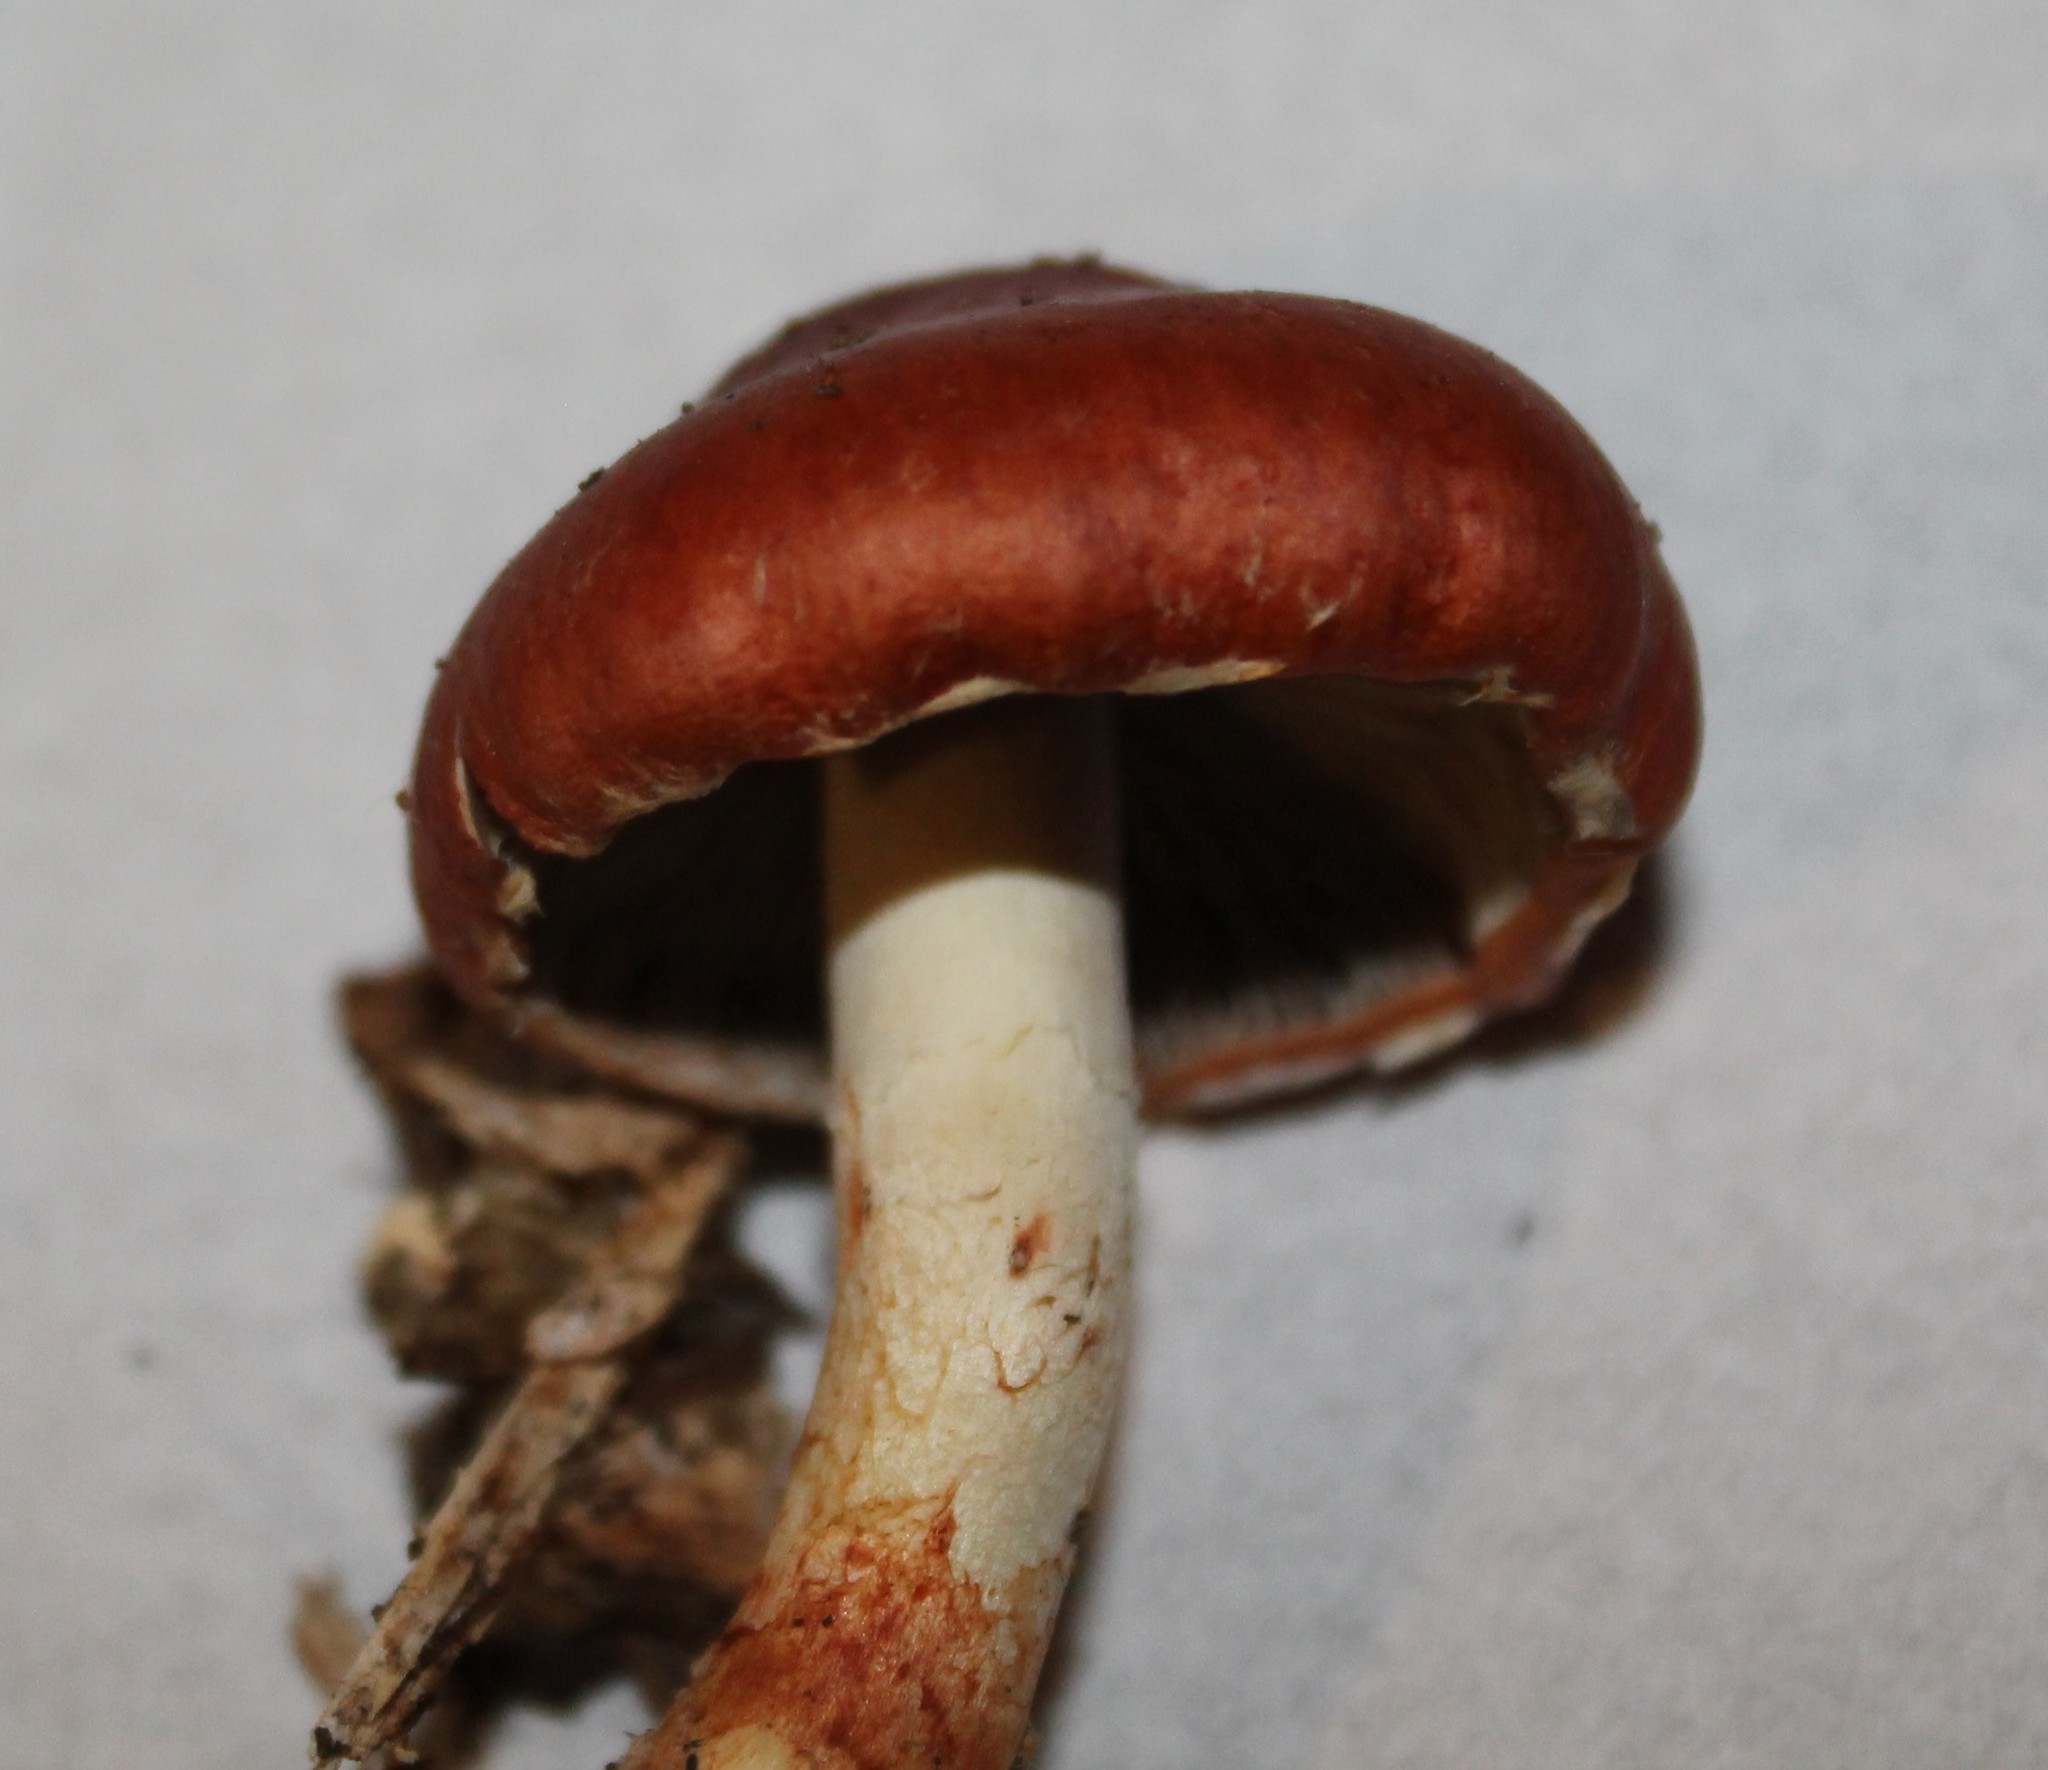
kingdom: Fungi
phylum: Basidiomycota
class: Agaricomycetes
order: Agaricales
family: Strophariaceae
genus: Leratiomyces
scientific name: Leratiomyces ceres
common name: Redlead roundhead
